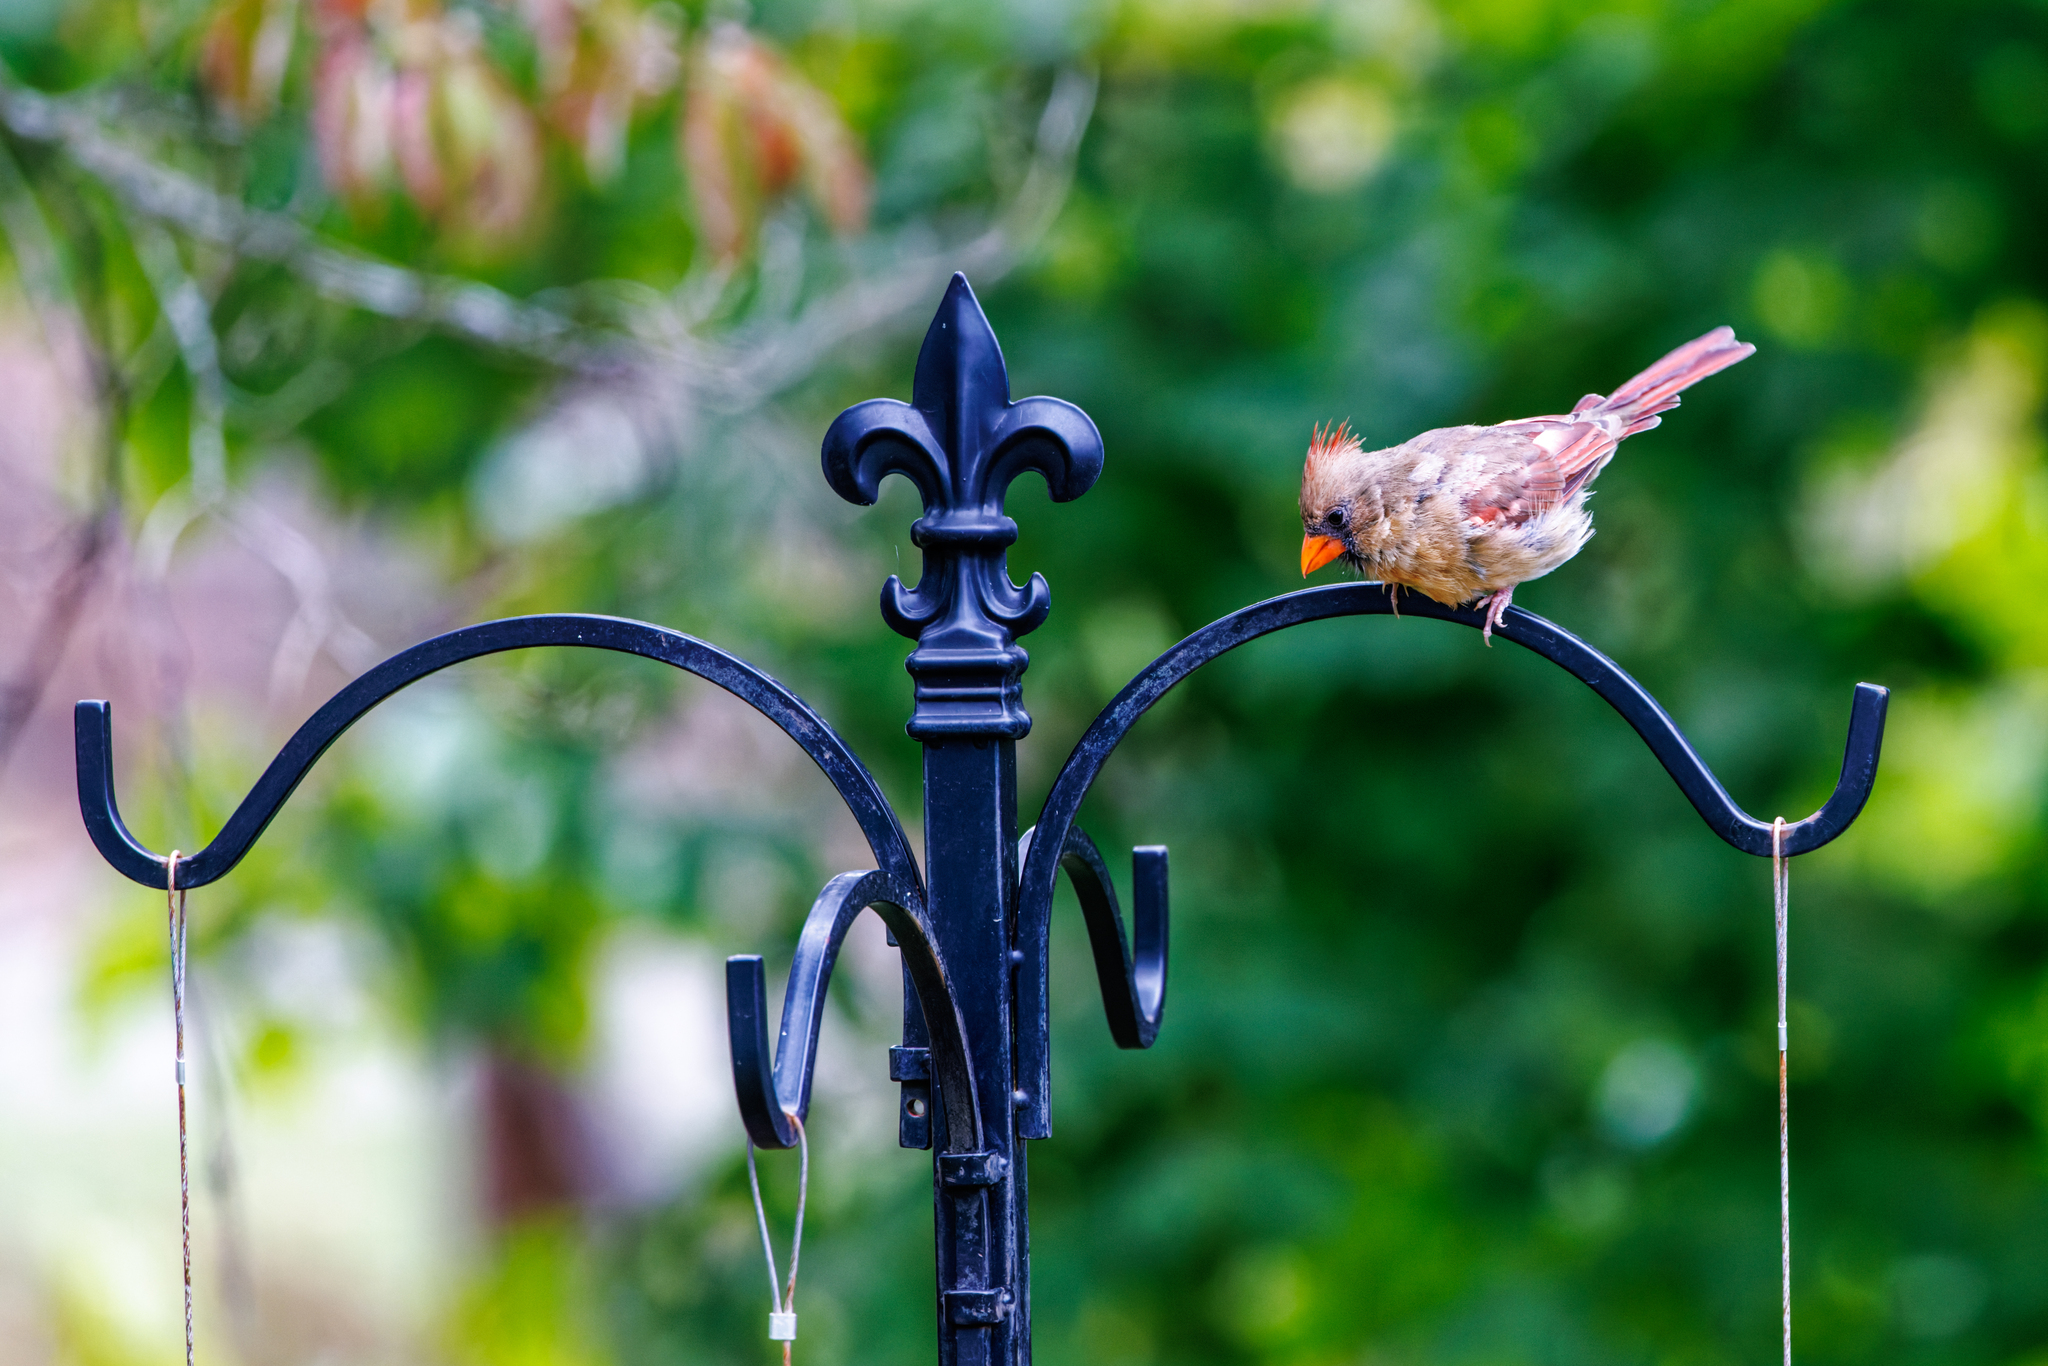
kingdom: Animalia
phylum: Chordata
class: Aves
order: Passeriformes
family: Cardinalidae
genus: Cardinalis
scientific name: Cardinalis cardinalis
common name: Northern cardinal
